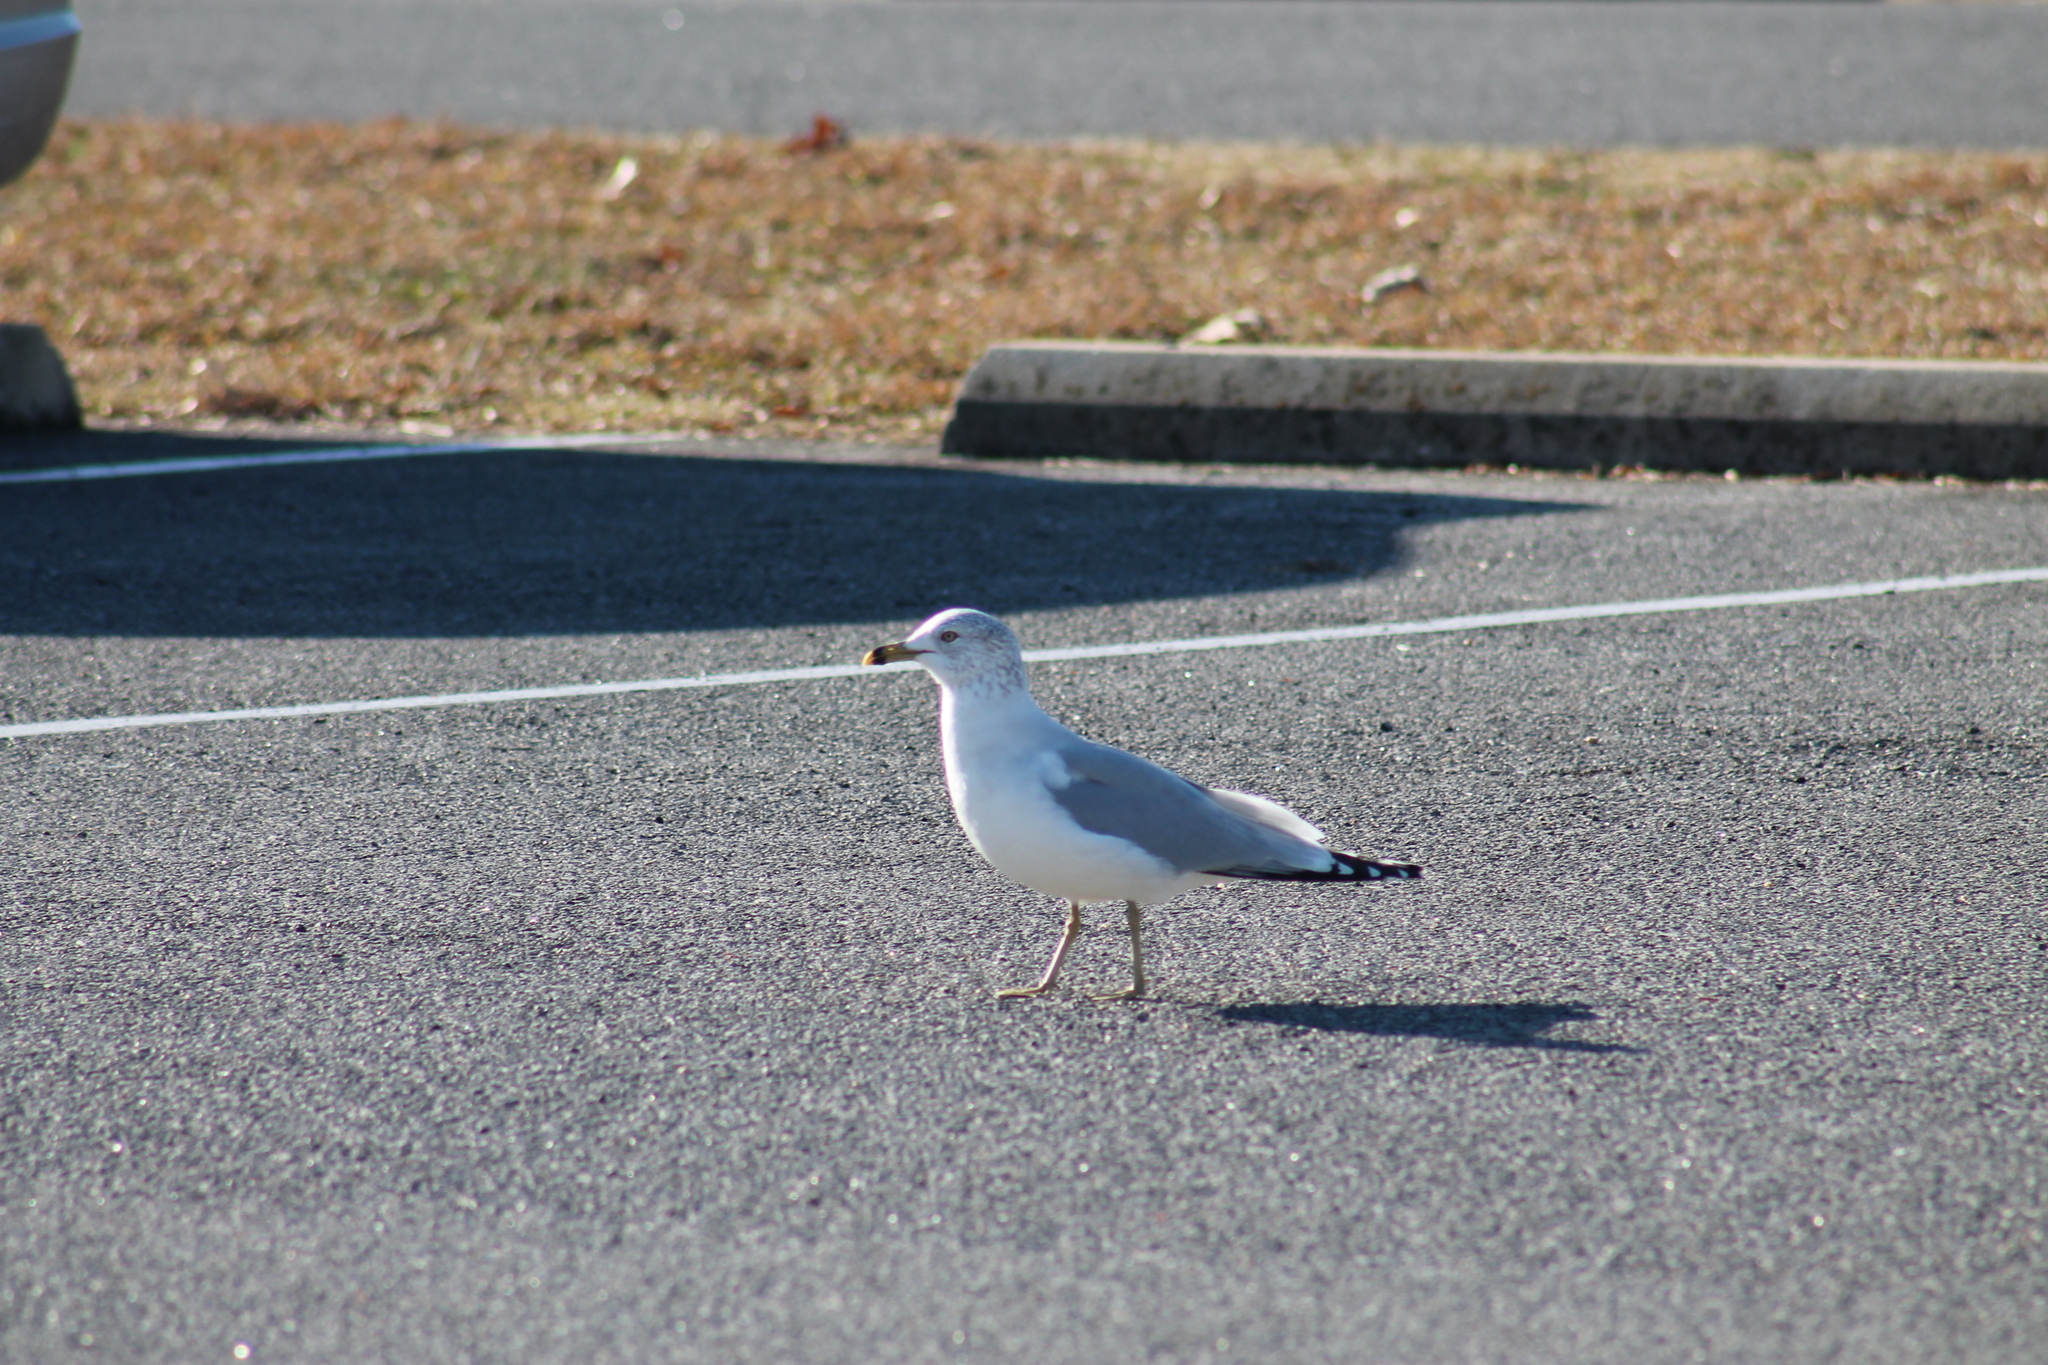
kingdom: Animalia
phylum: Chordata
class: Aves
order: Charadriiformes
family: Laridae
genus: Larus
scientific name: Larus delawarensis
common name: Ring-billed gull
